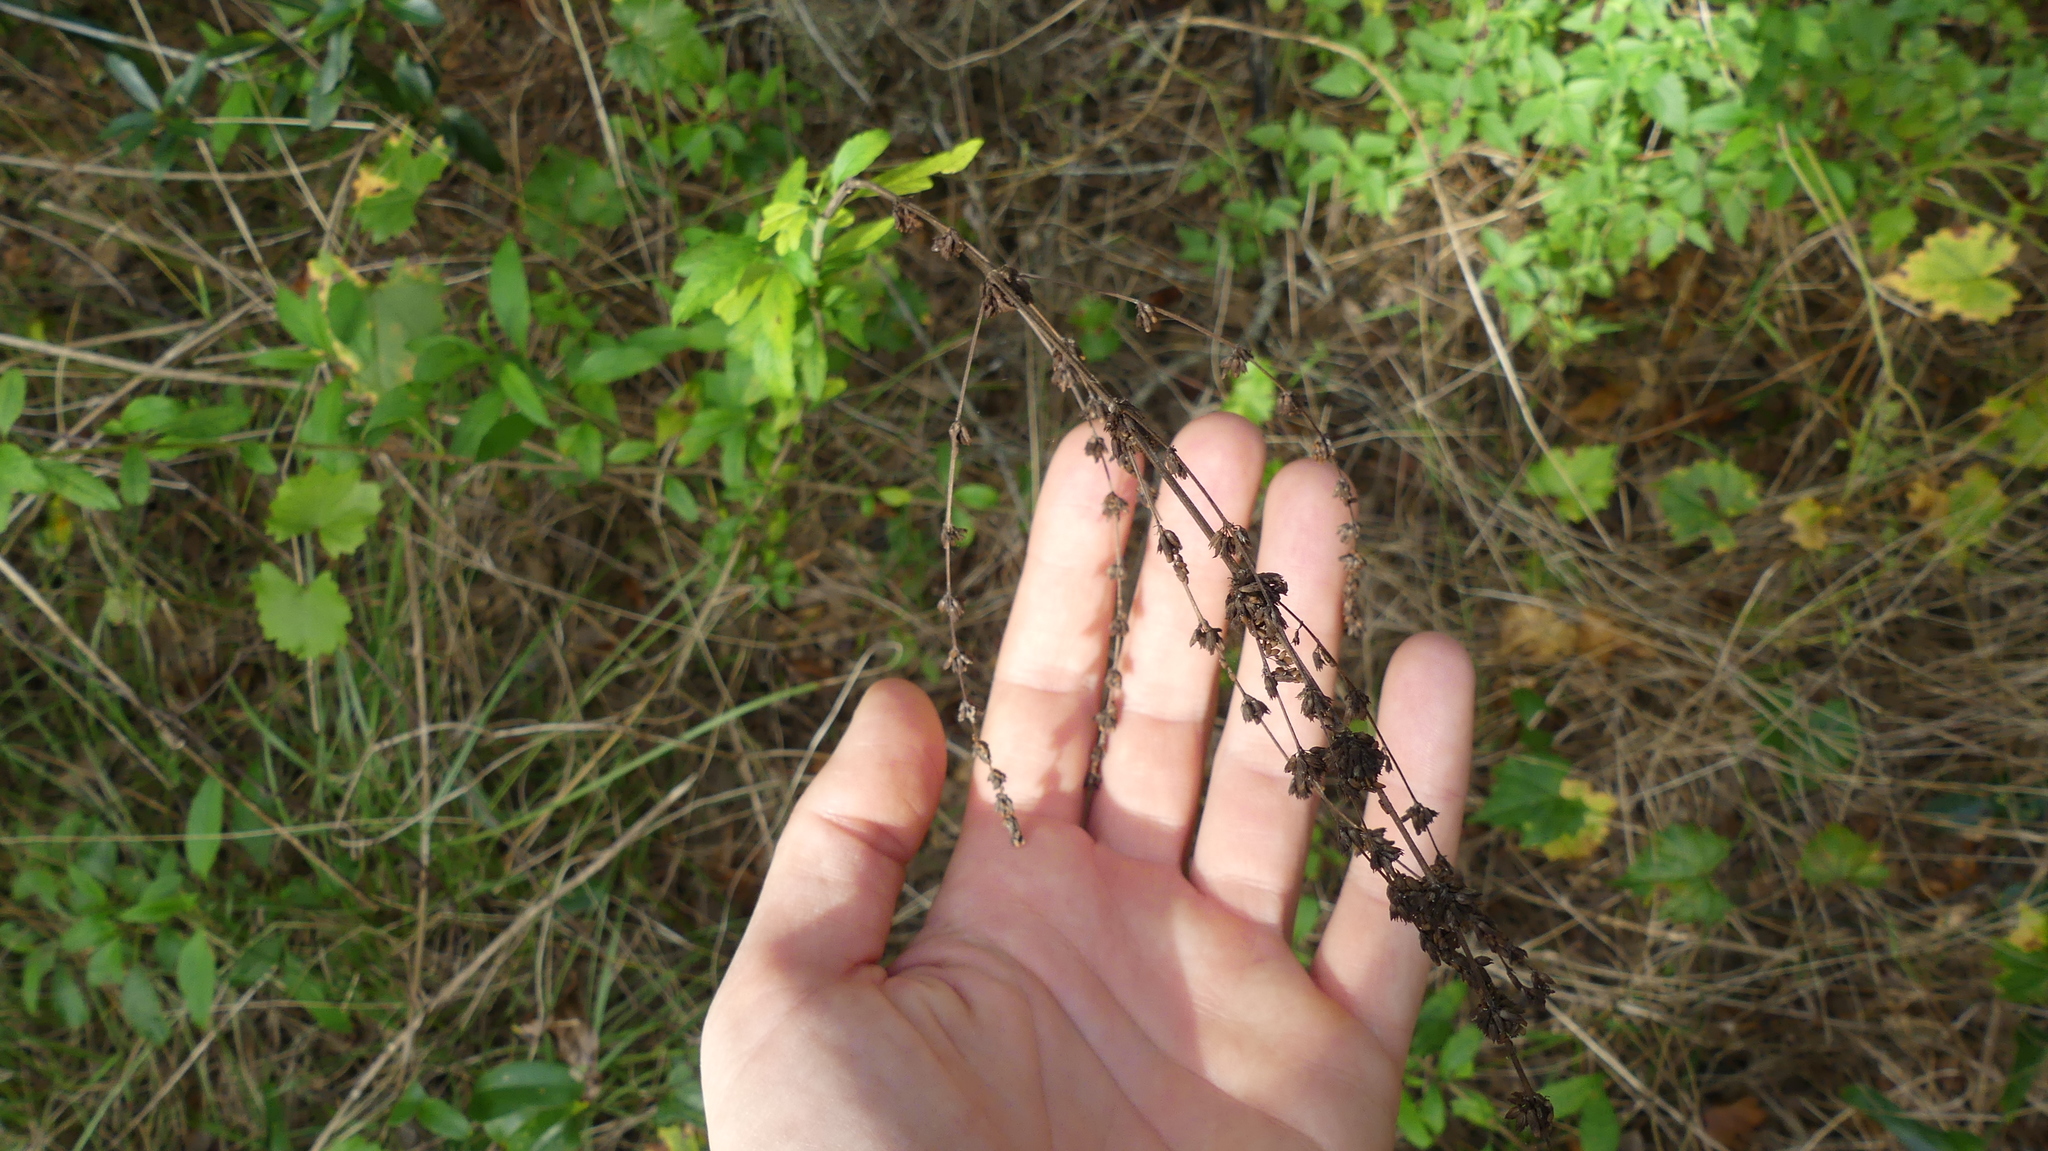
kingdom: Plantae
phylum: Tracheophyta
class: Magnoliopsida
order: Lamiales
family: Lamiaceae
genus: Condea
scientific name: Condea verticillata
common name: John charles
